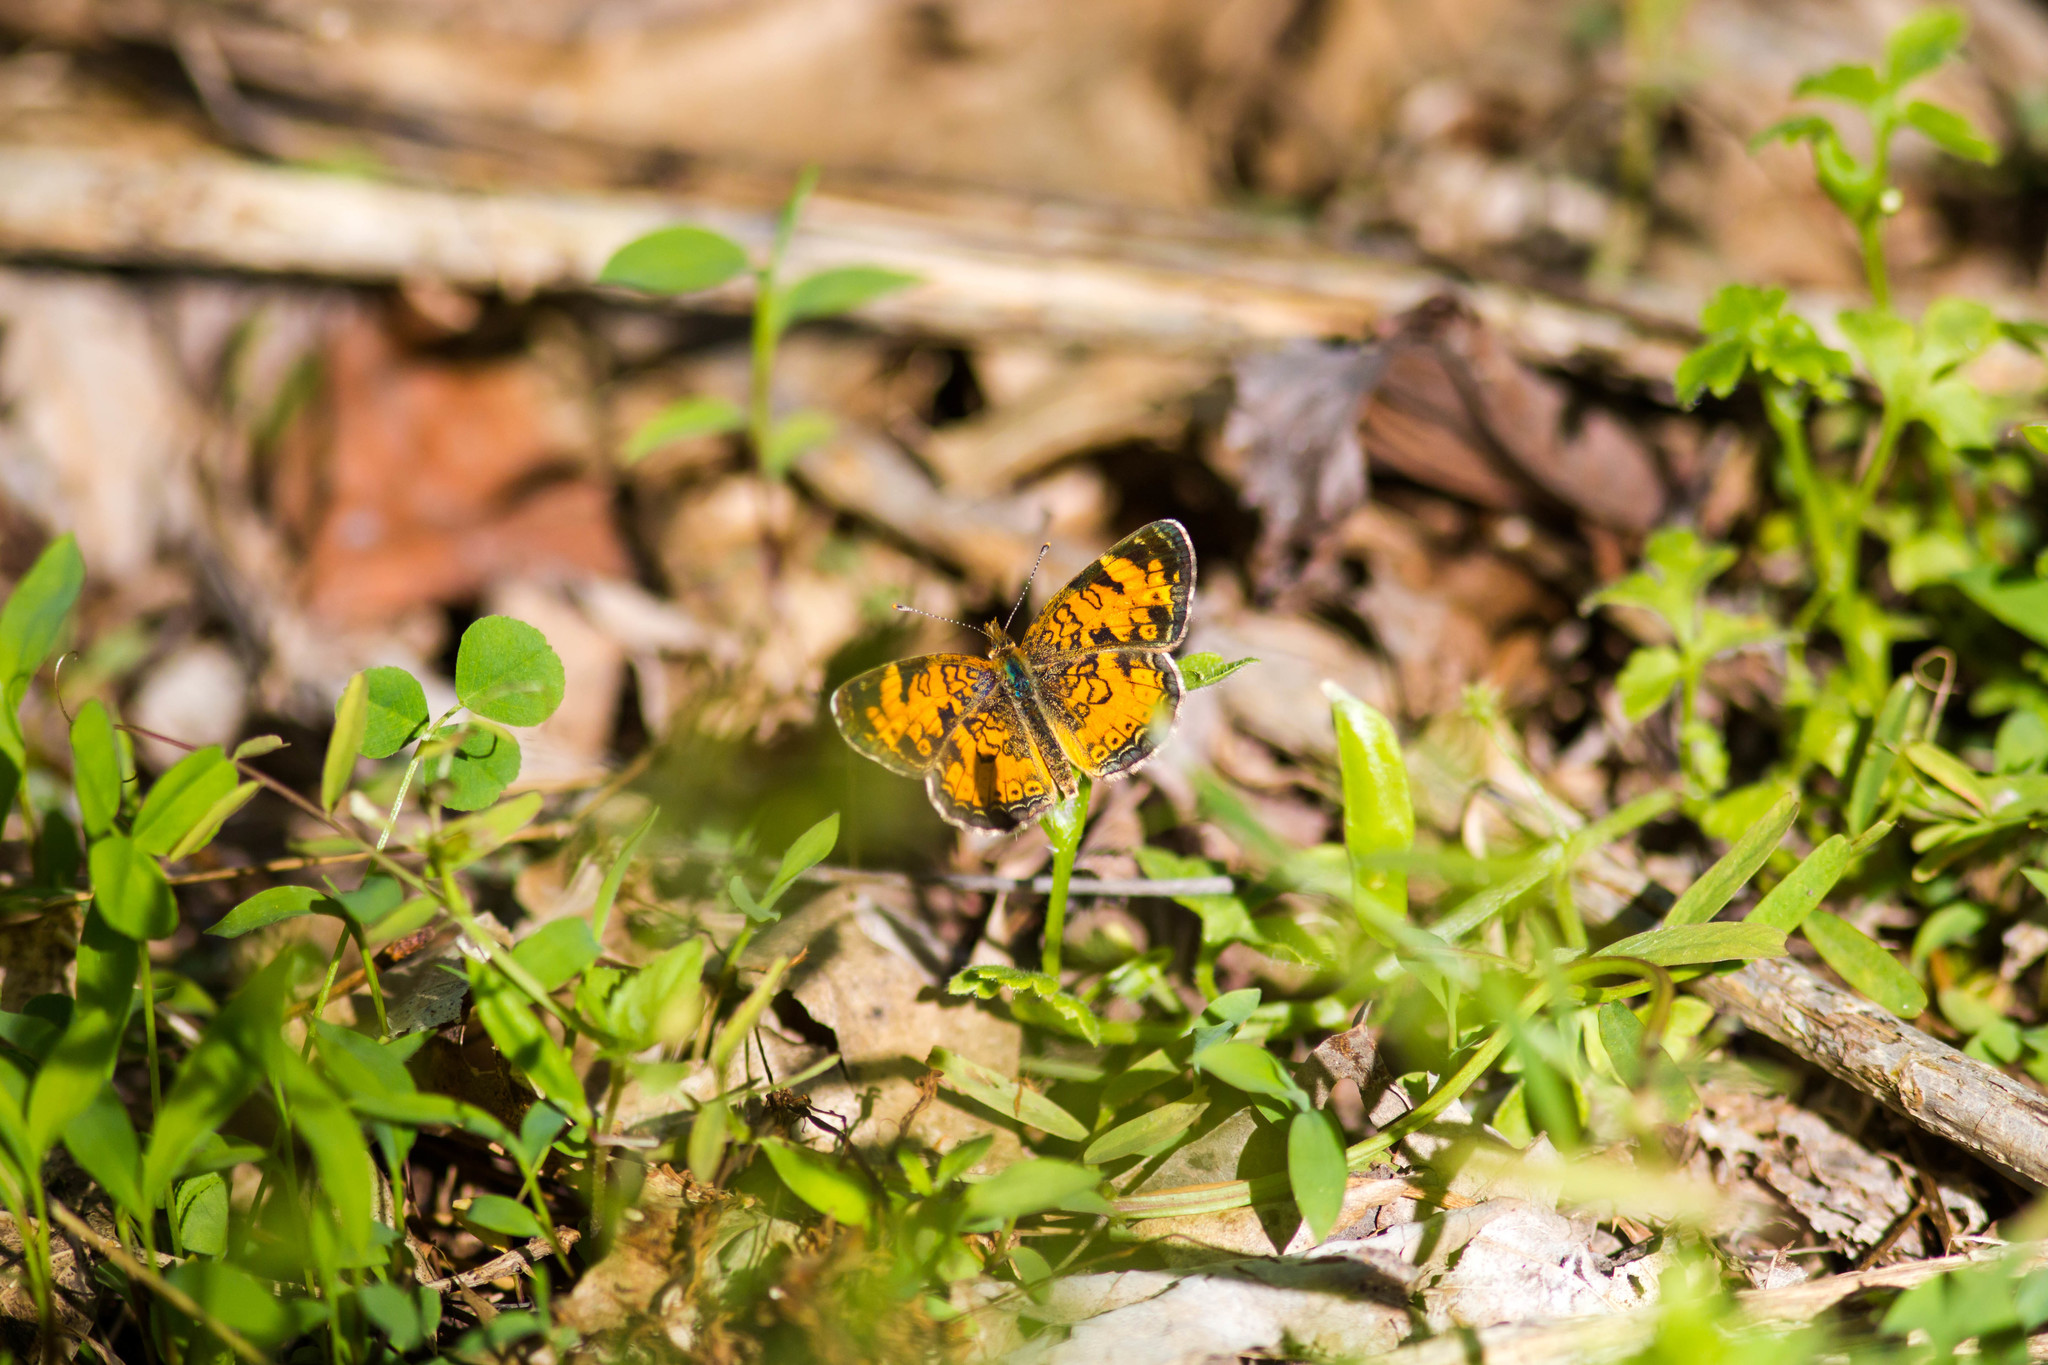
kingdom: Animalia
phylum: Arthropoda
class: Insecta
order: Lepidoptera
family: Nymphalidae
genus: Phyciodes
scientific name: Phyciodes tharos
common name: Pearl crescent
